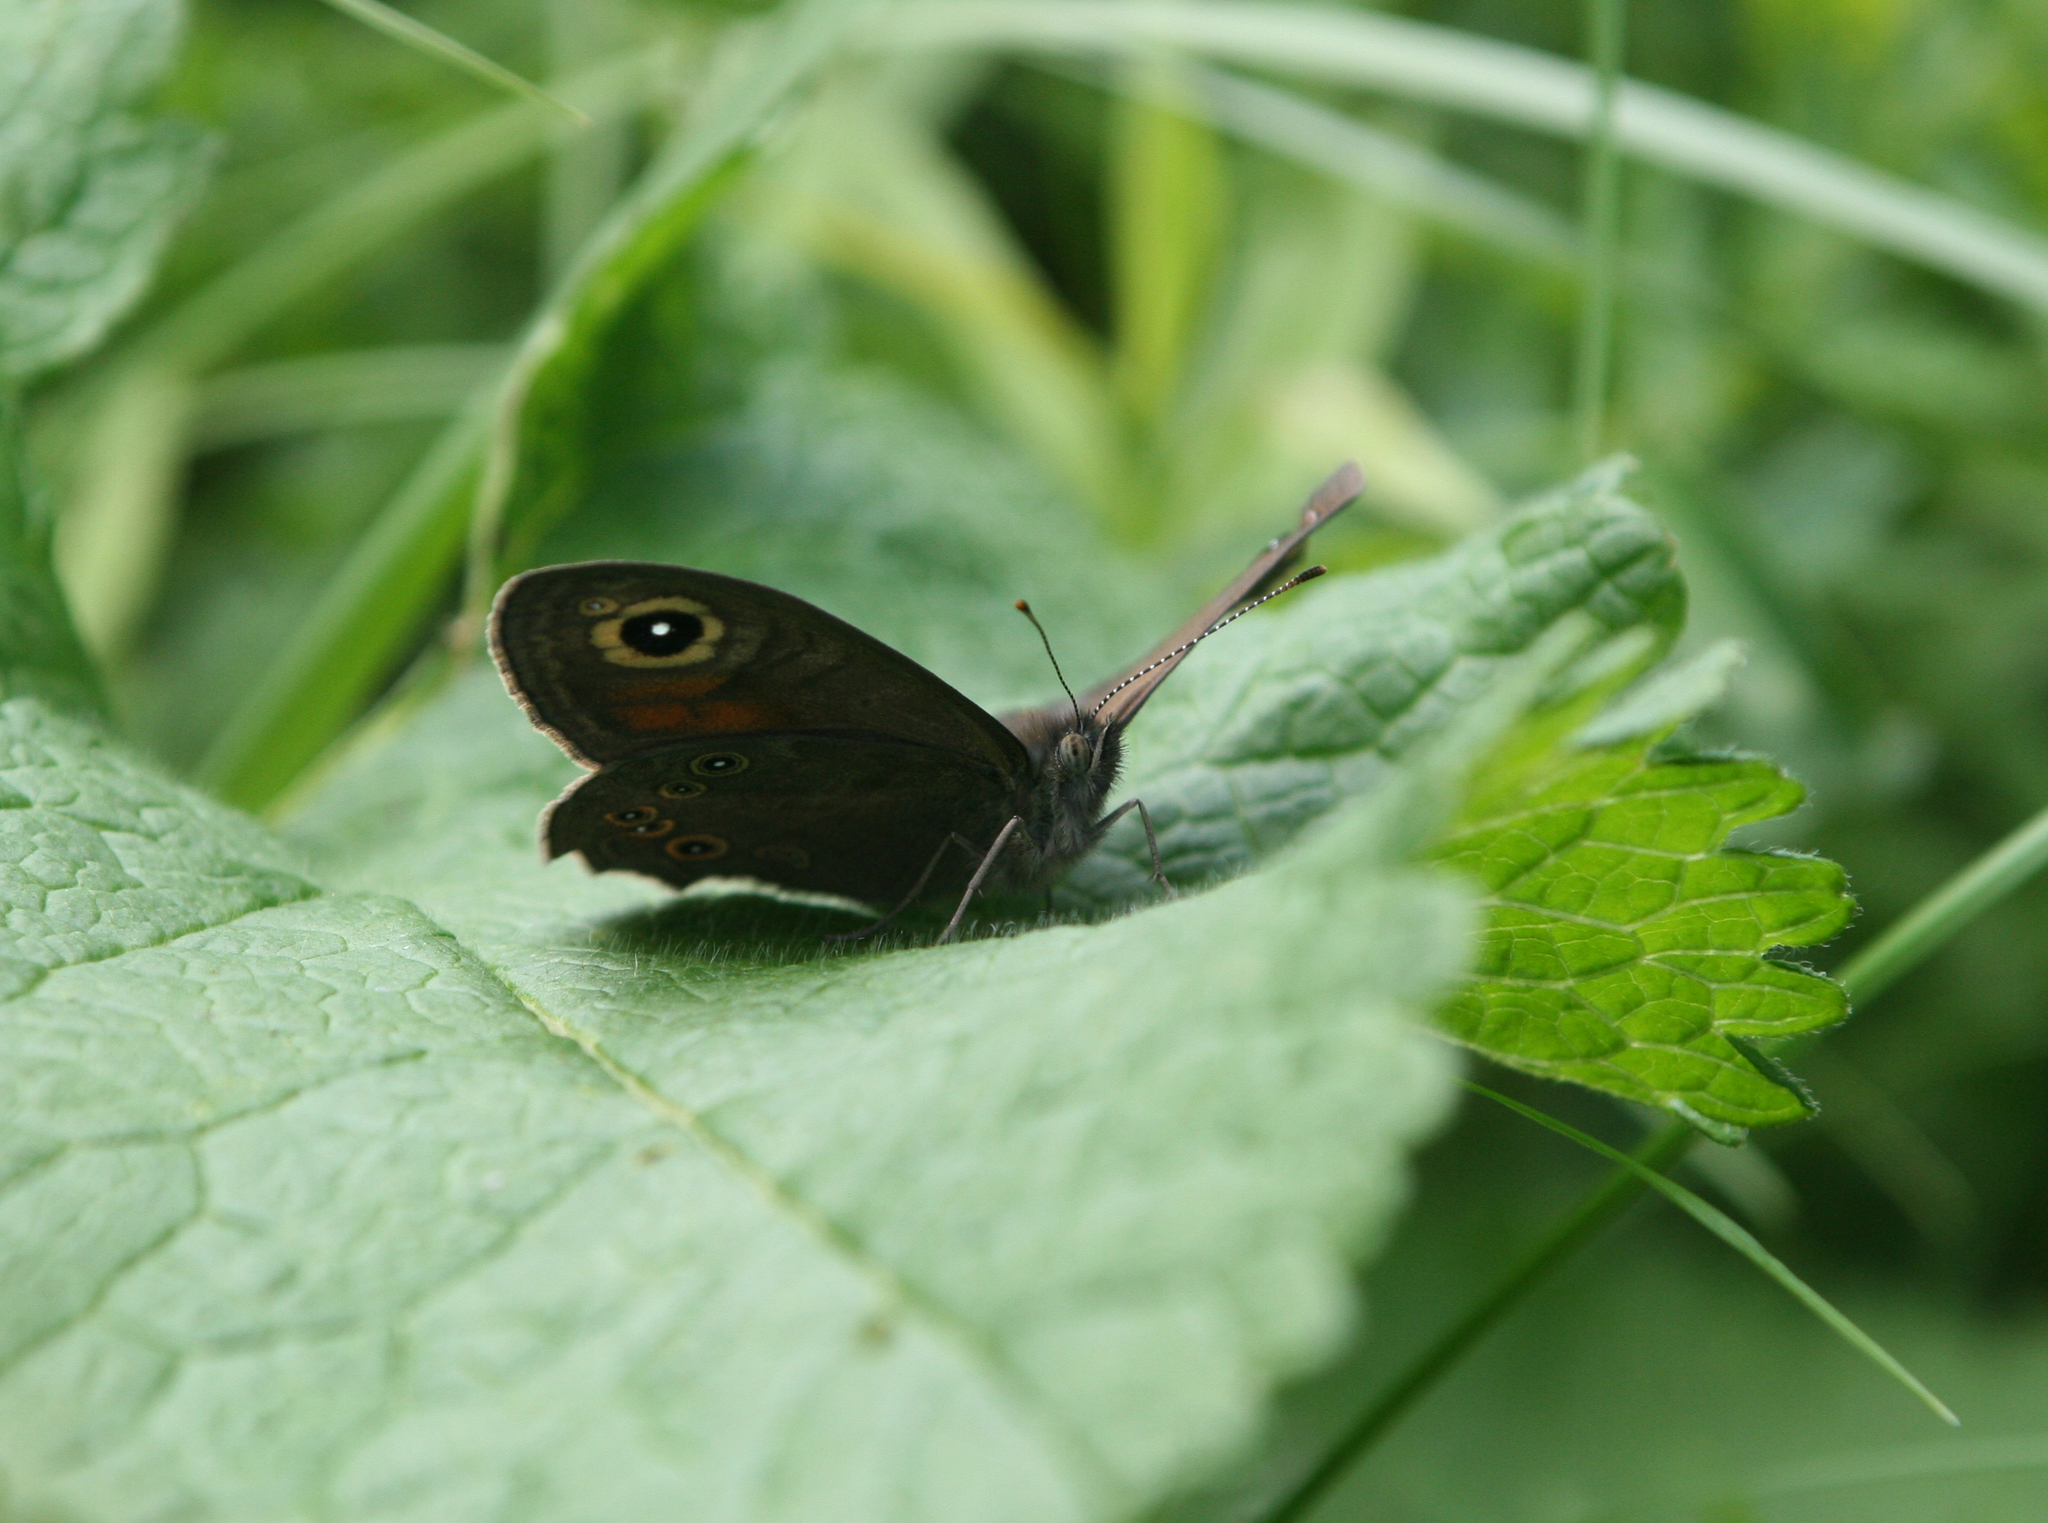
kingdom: Animalia
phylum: Arthropoda
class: Insecta
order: Lepidoptera
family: Nymphalidae
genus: Pararge
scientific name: Pararge Lasiommata maera
